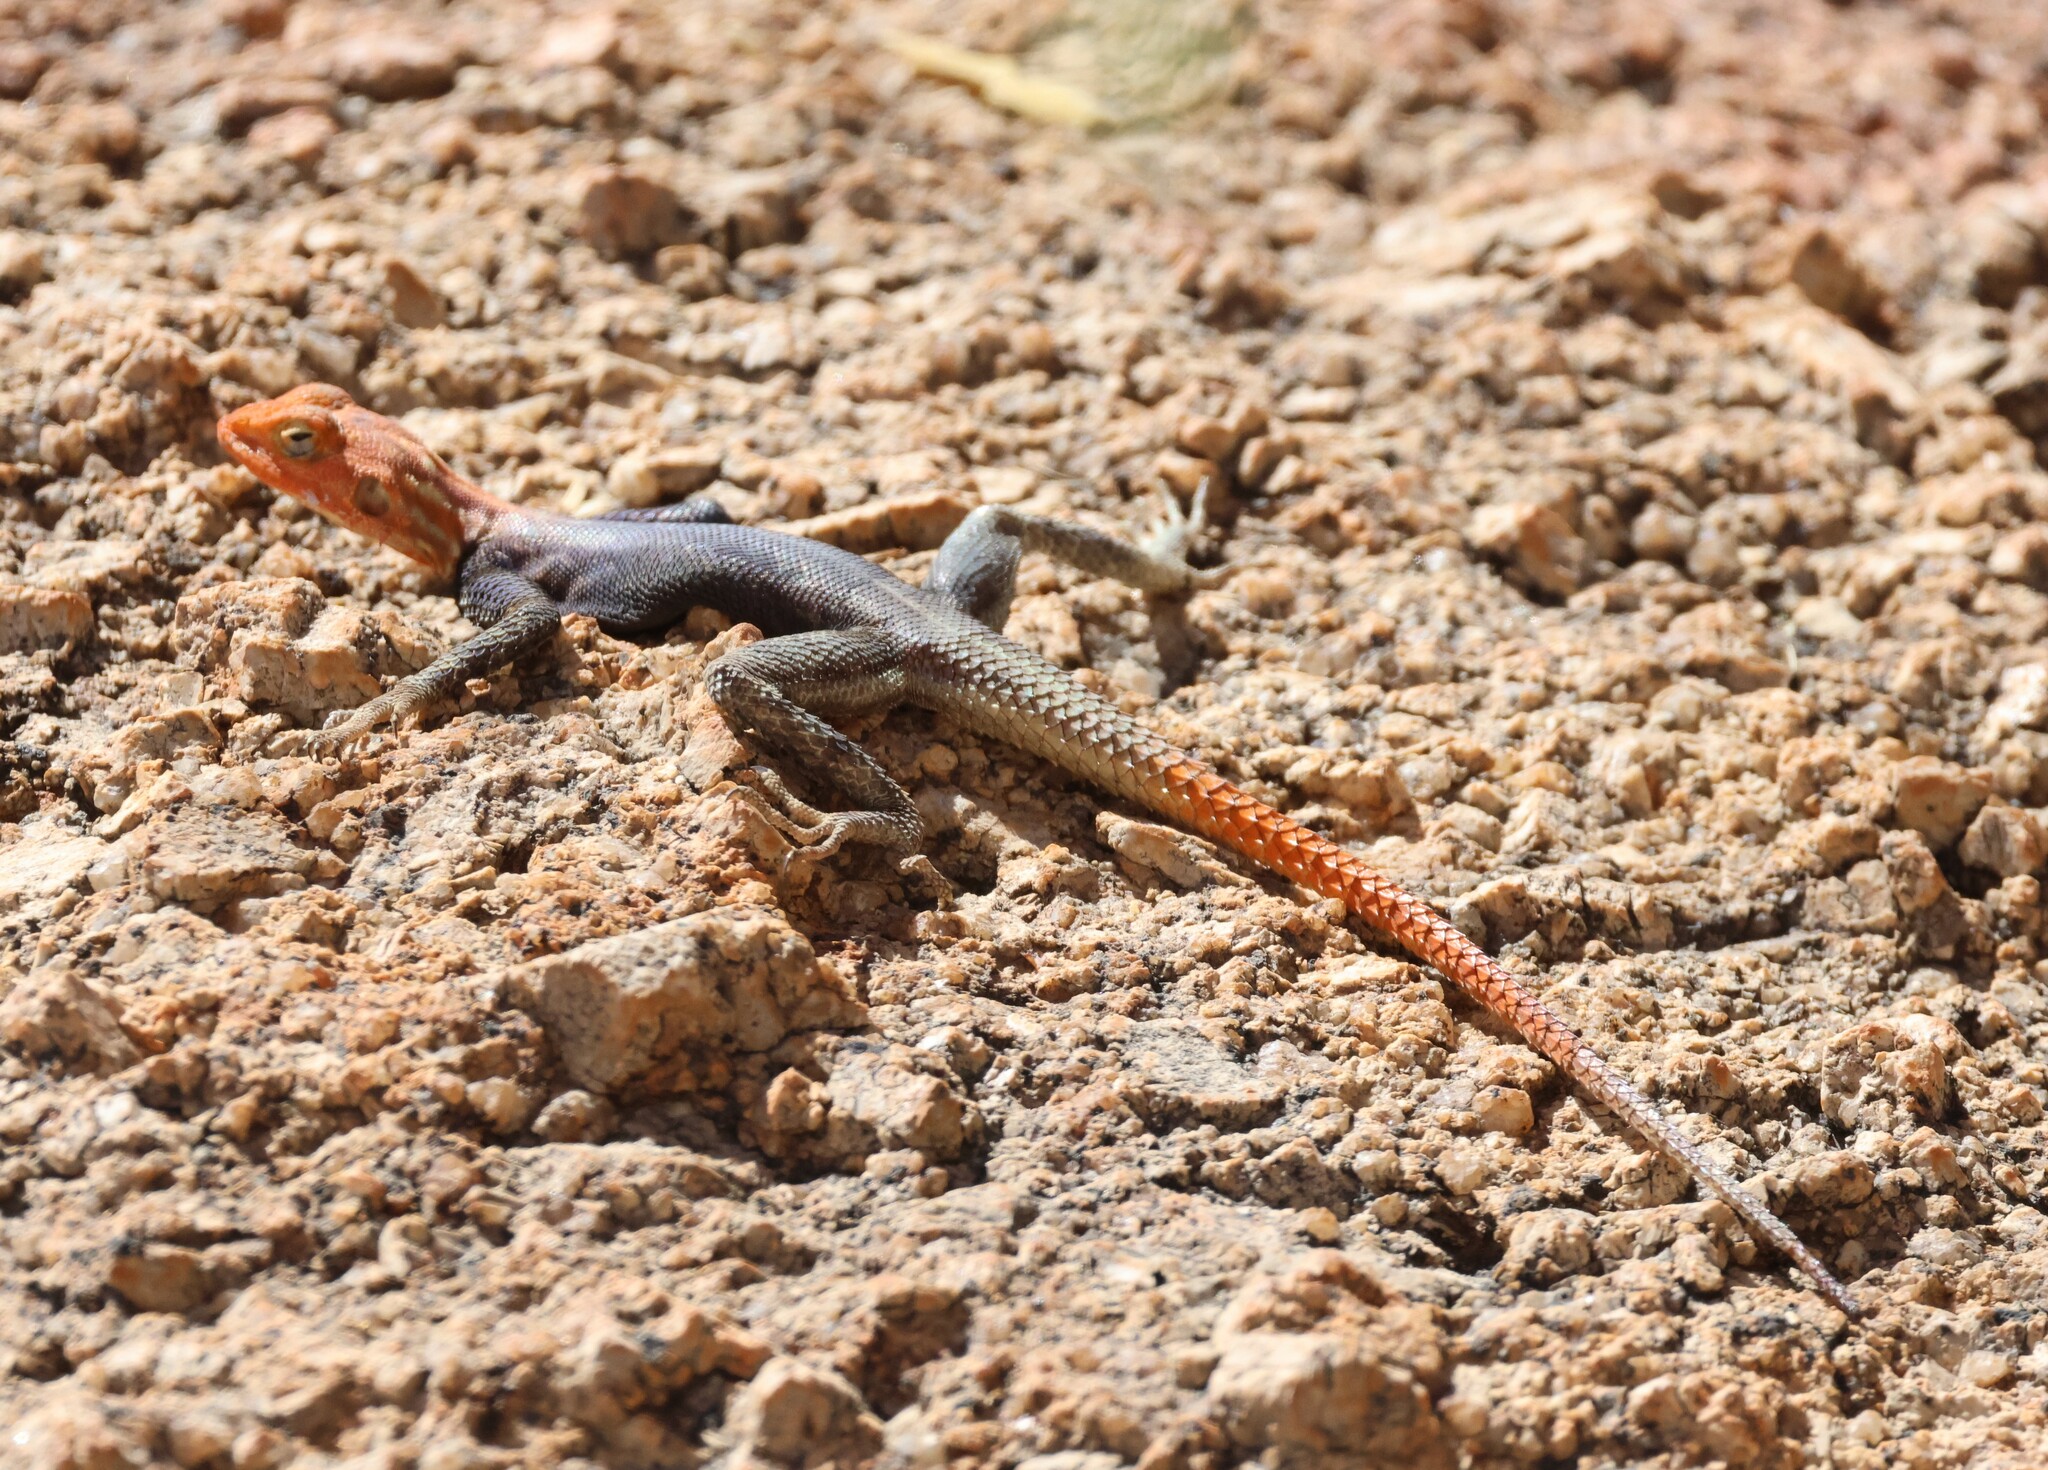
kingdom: Animalia
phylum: Chordata
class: Squamata
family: Agamidae
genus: Agama
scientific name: Agama planiceps
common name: Namib rock agama
